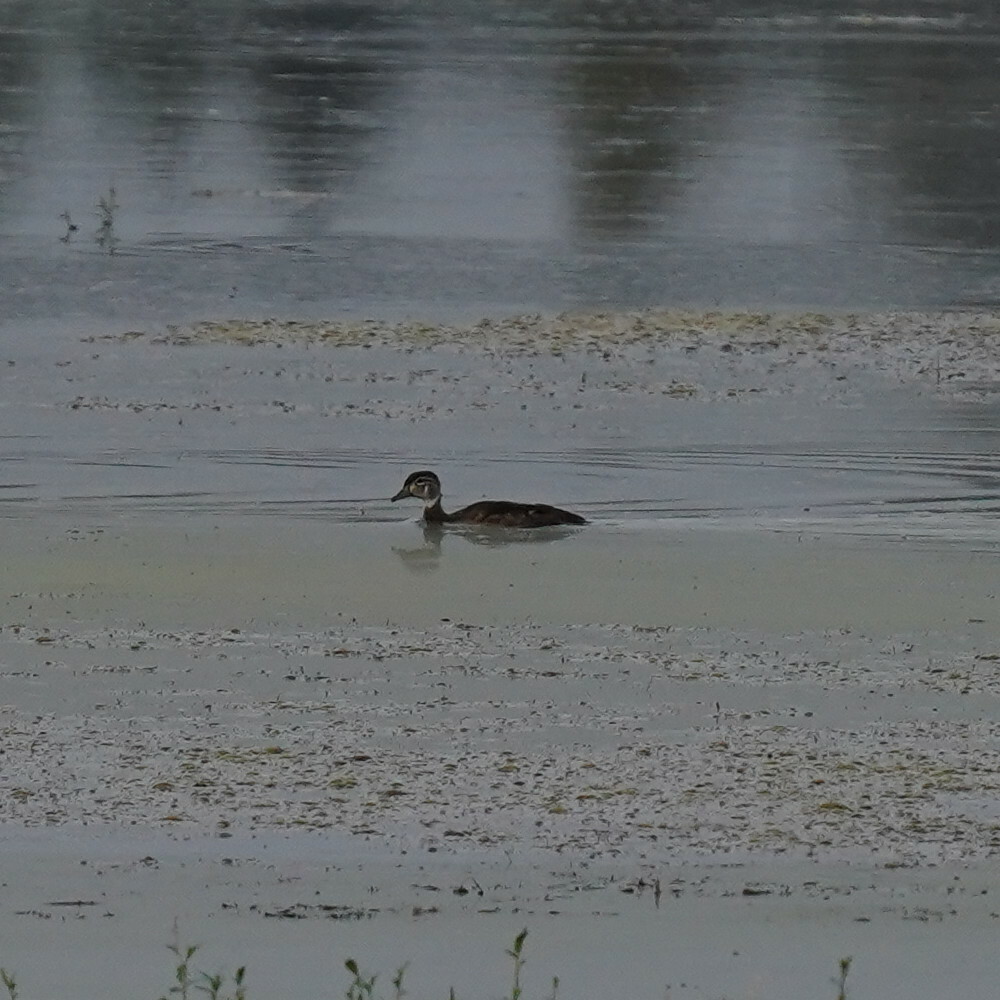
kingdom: Animalia
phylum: Chordata
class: Aves
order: Anseriformes
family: Anatidae
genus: Aix
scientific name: Aix sponsa
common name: Wood duck
